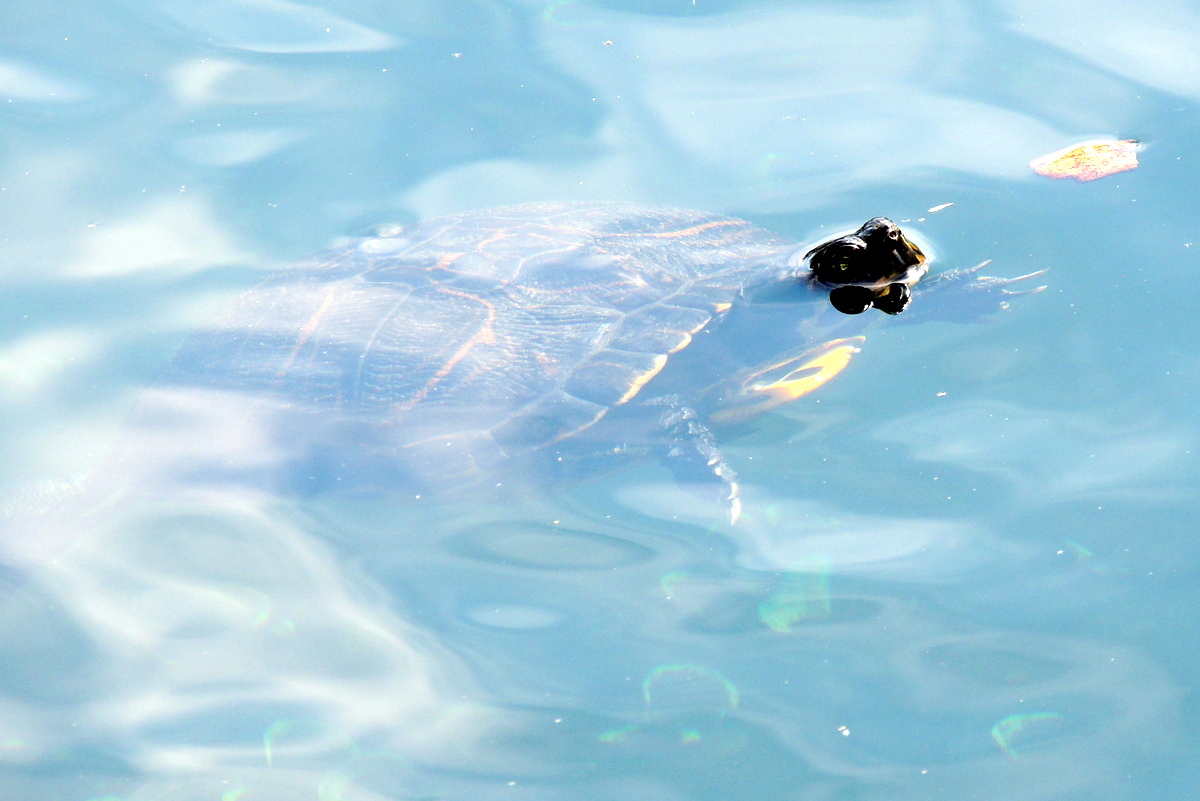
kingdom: Animalia
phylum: Chordata
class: Testudines
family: Emydidae
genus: Trachemys
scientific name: Trachemys scripta
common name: Slider
